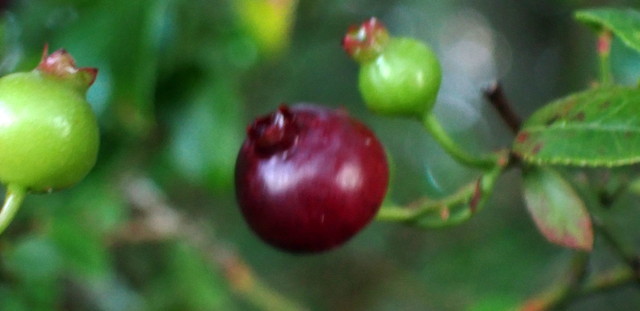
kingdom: Plantae
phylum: Tracheophyta
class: Magnoliopsida
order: Ericales
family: Ericaceae
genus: Vaccinium
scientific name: Vaccinium corymbosum
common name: Blueberry
